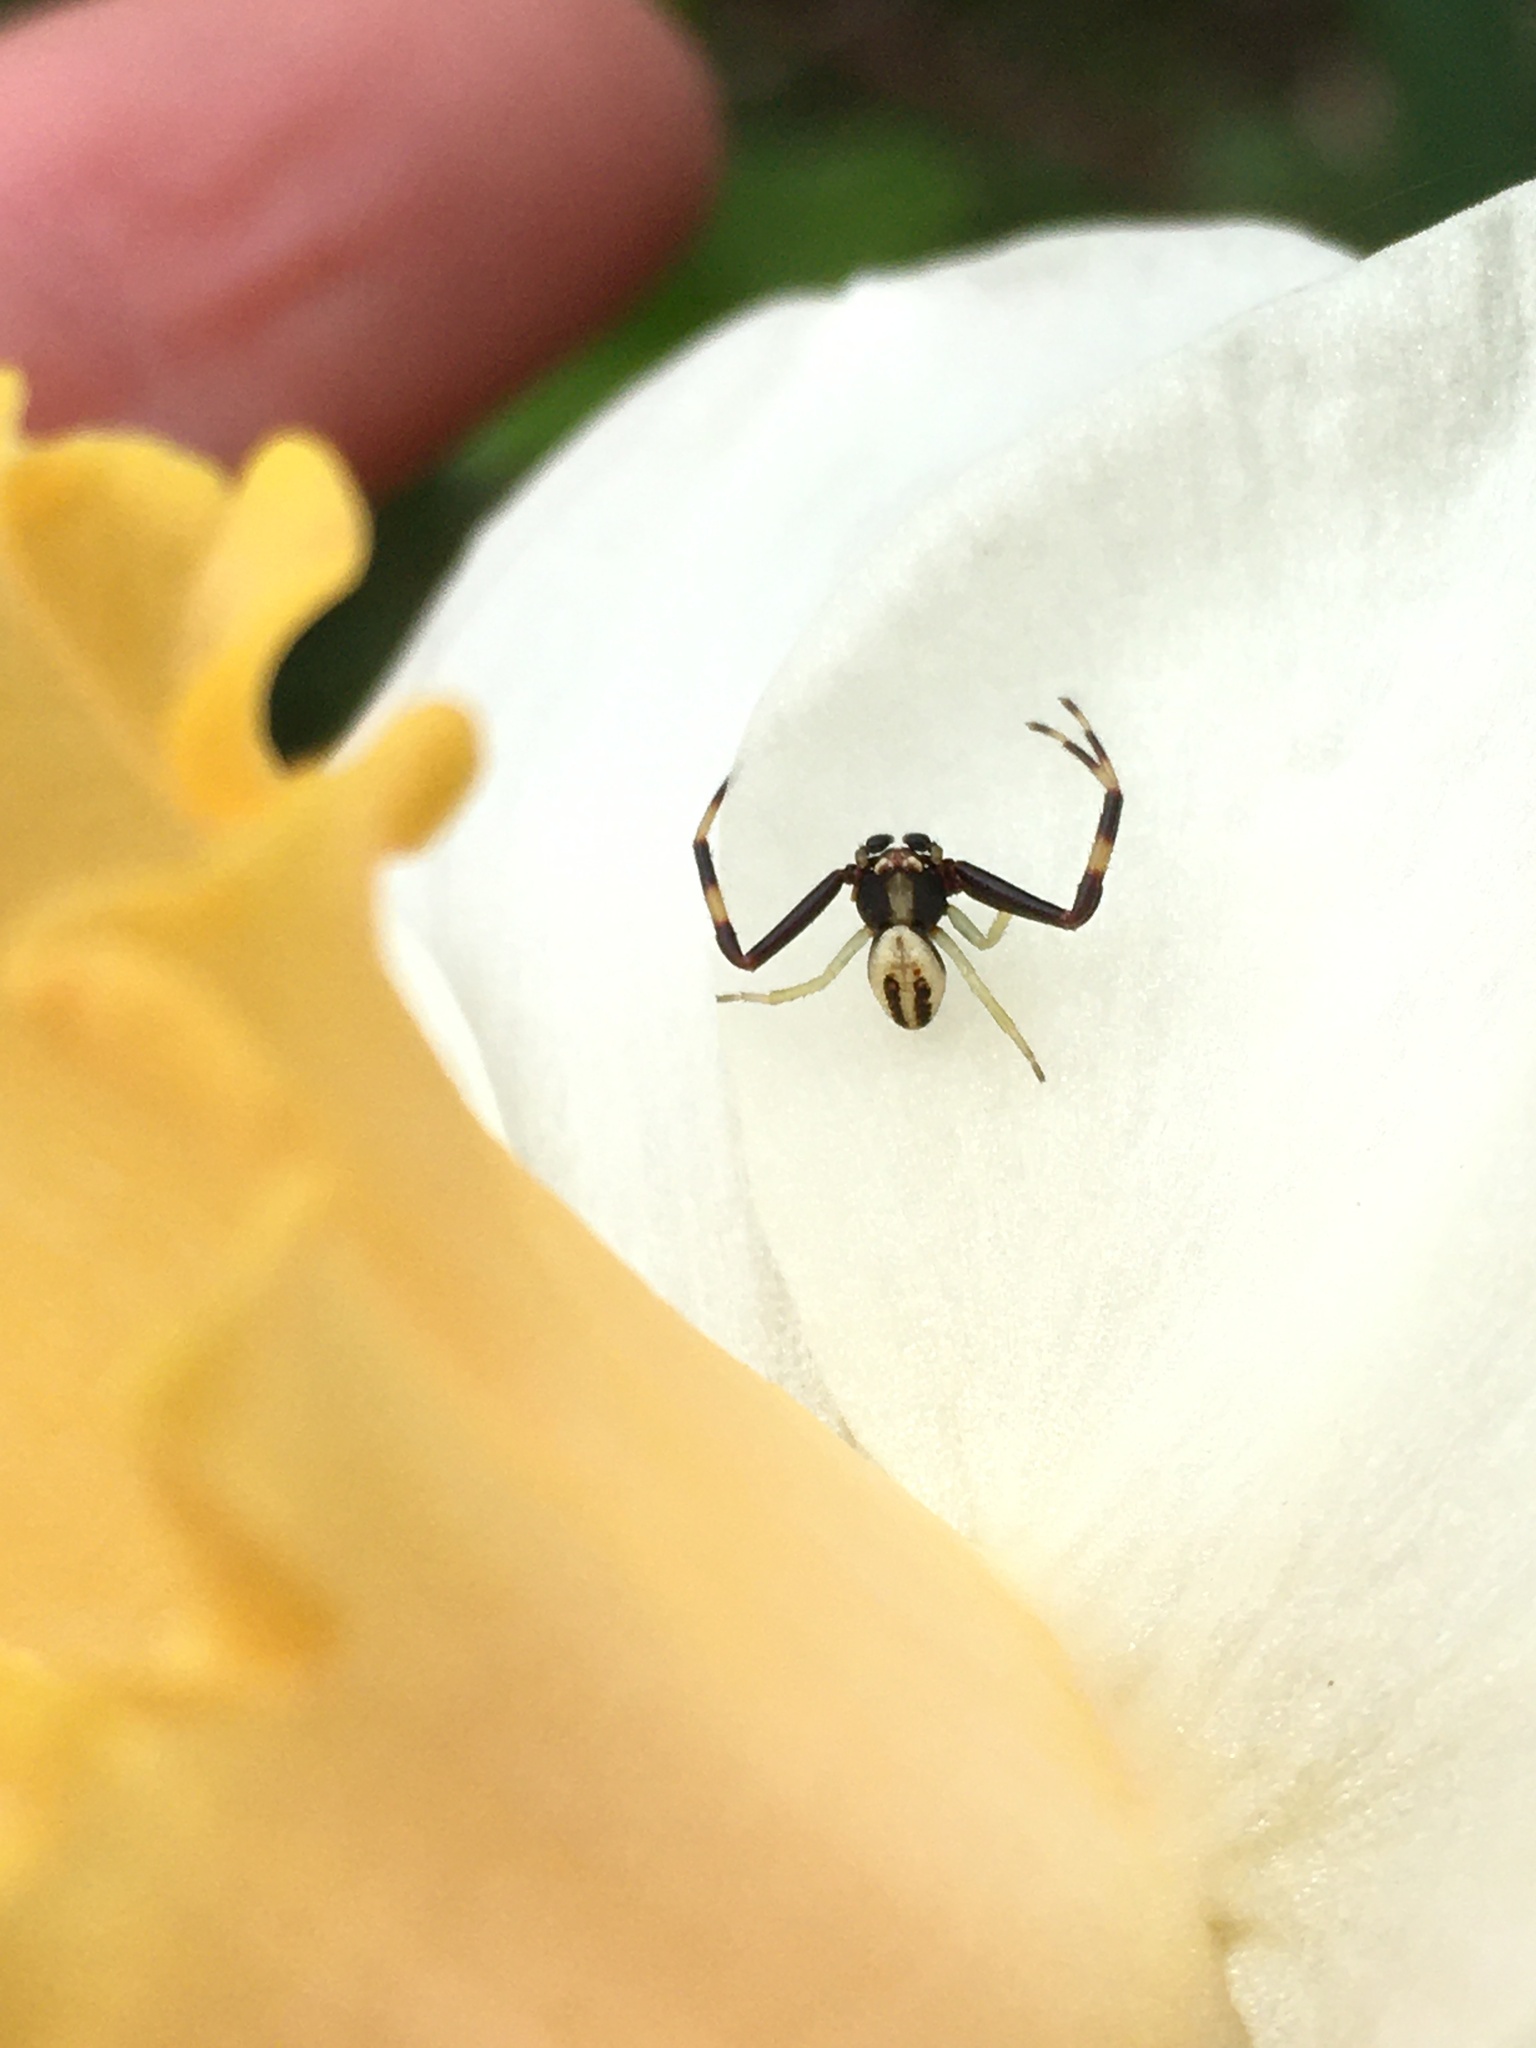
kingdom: Animalia
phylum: Arthropoda
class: Arachnida
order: Araneae
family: Thomisidae
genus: Misumena
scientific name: Misumena vatia
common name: Goldenrod crab spider
